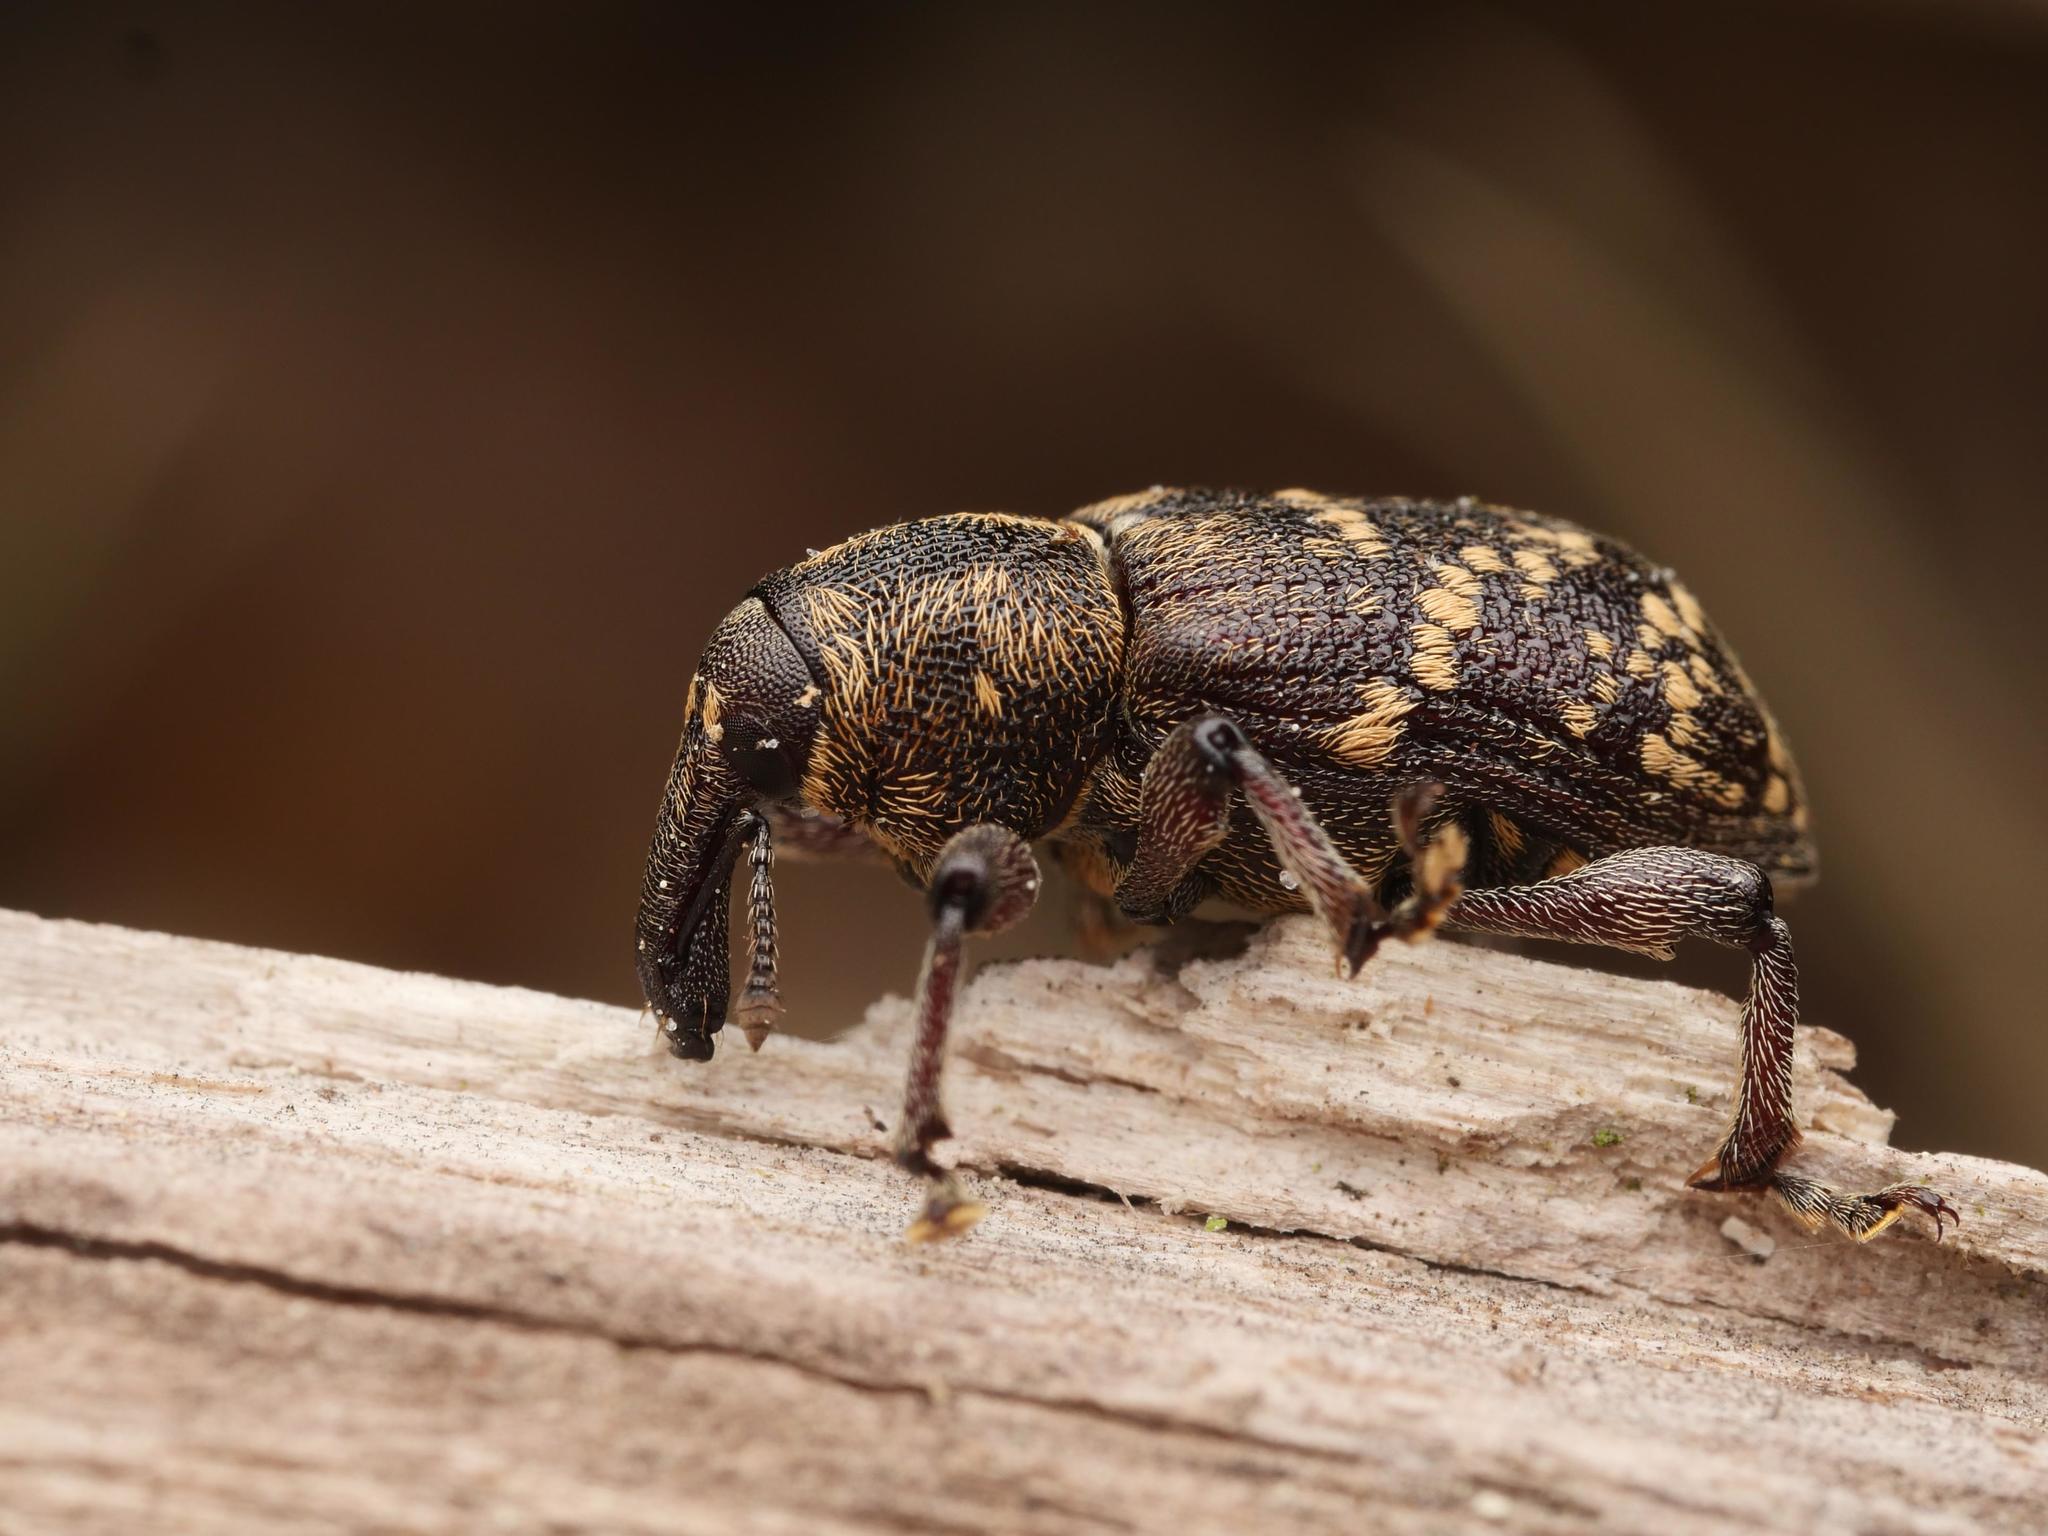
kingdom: Animalia
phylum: Arthropoda
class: Insecta
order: Coleoptera
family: Curculionidae
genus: Hylobius
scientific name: Hylobius abietis
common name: Large pine weevil
